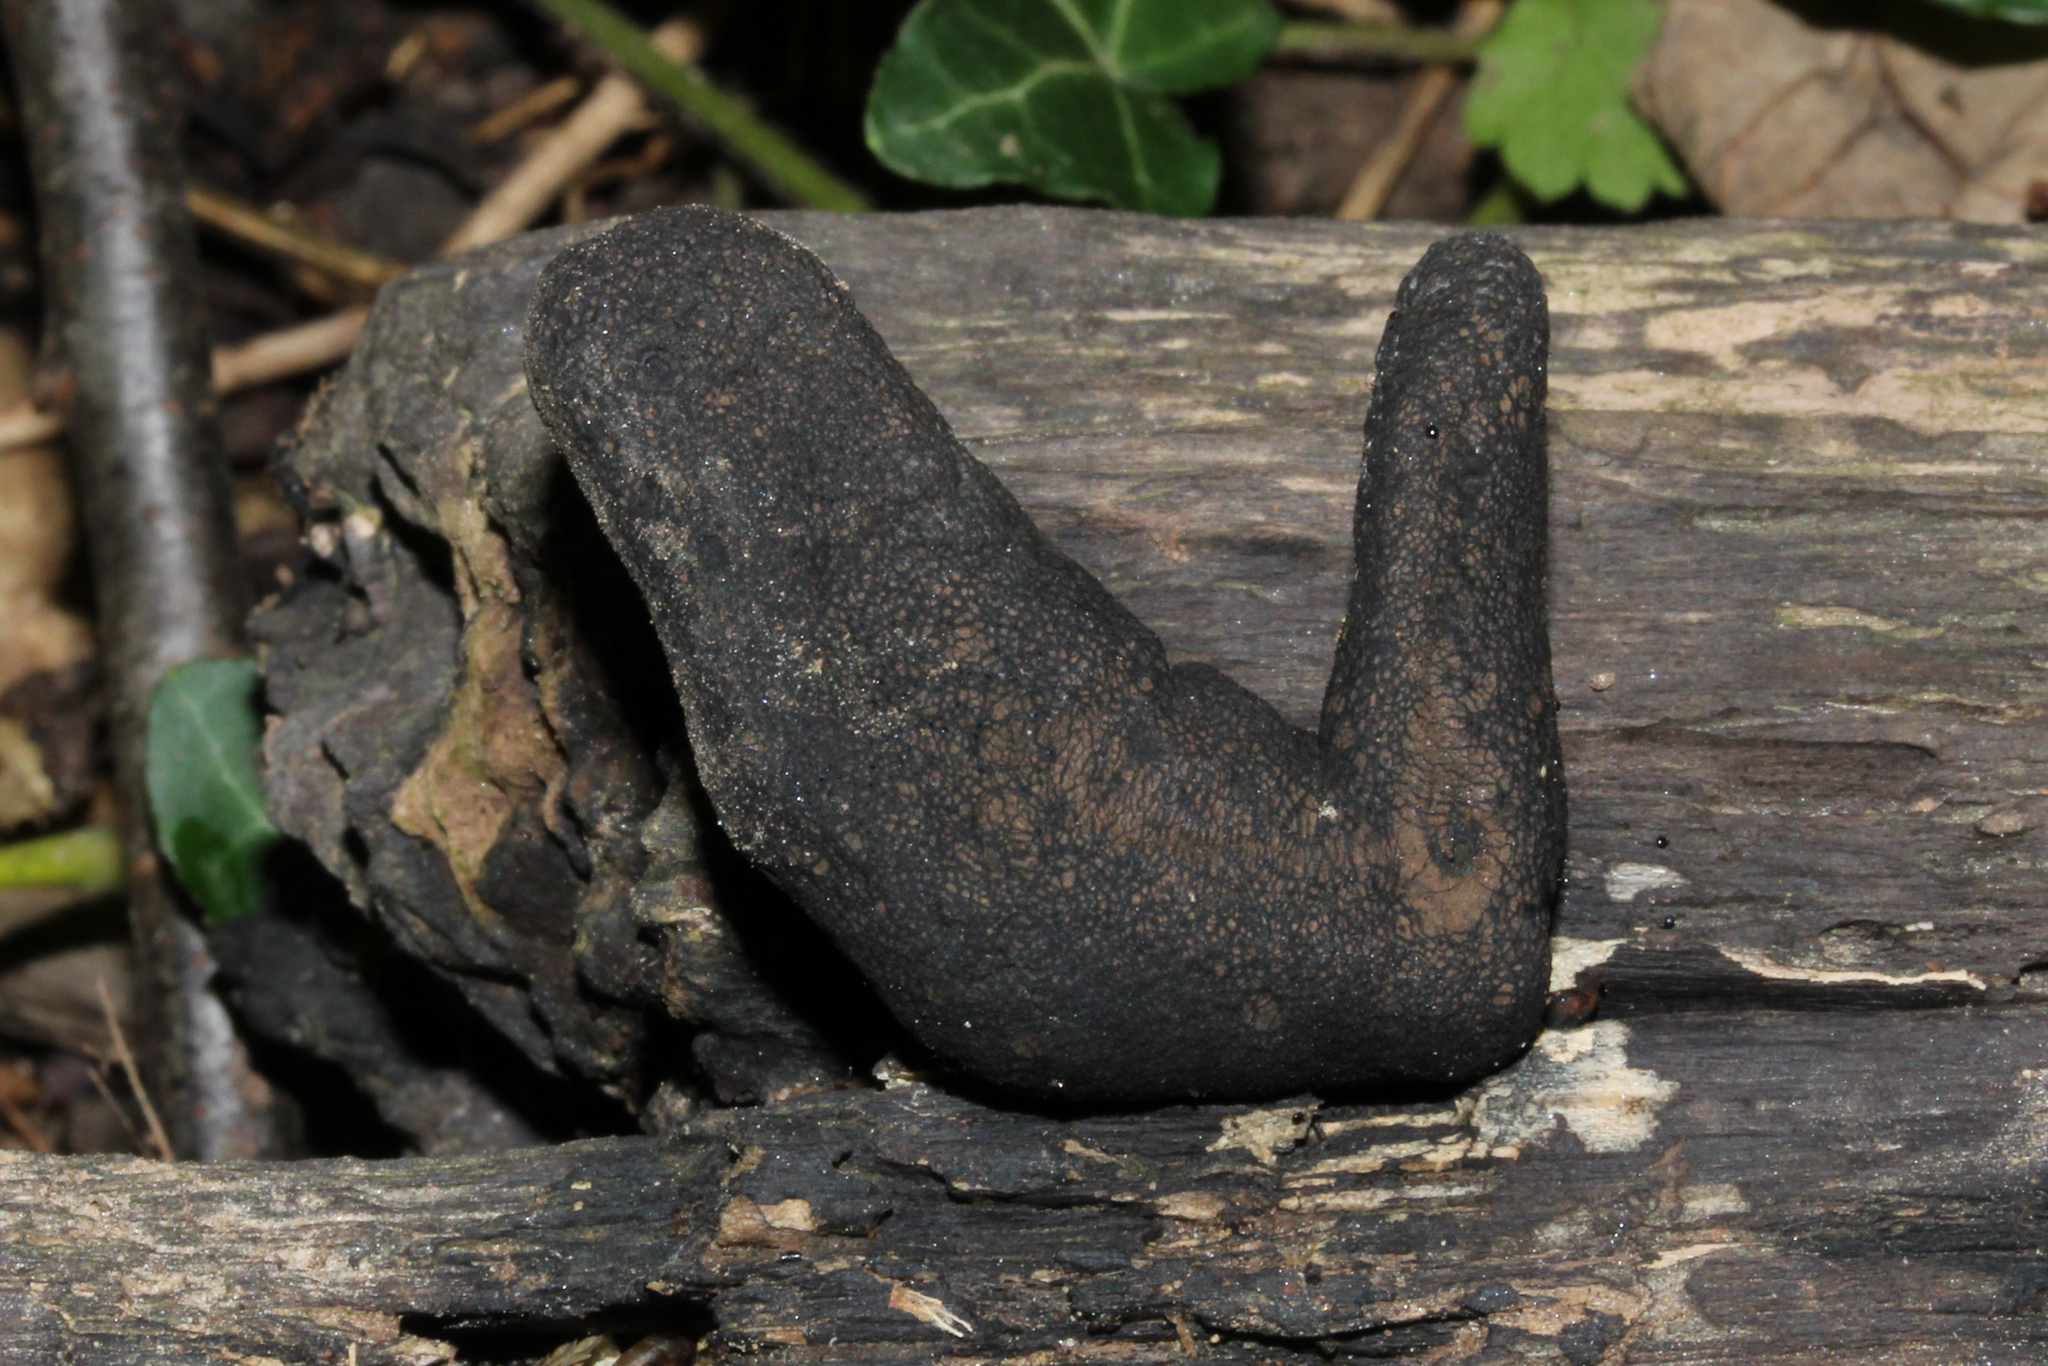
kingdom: Fungi
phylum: Ascomycota
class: Sordariomycetes
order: Xylariales
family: Xylariaceae
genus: Xylaria
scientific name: Xylaria polymorpha
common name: Dead man's fingers
